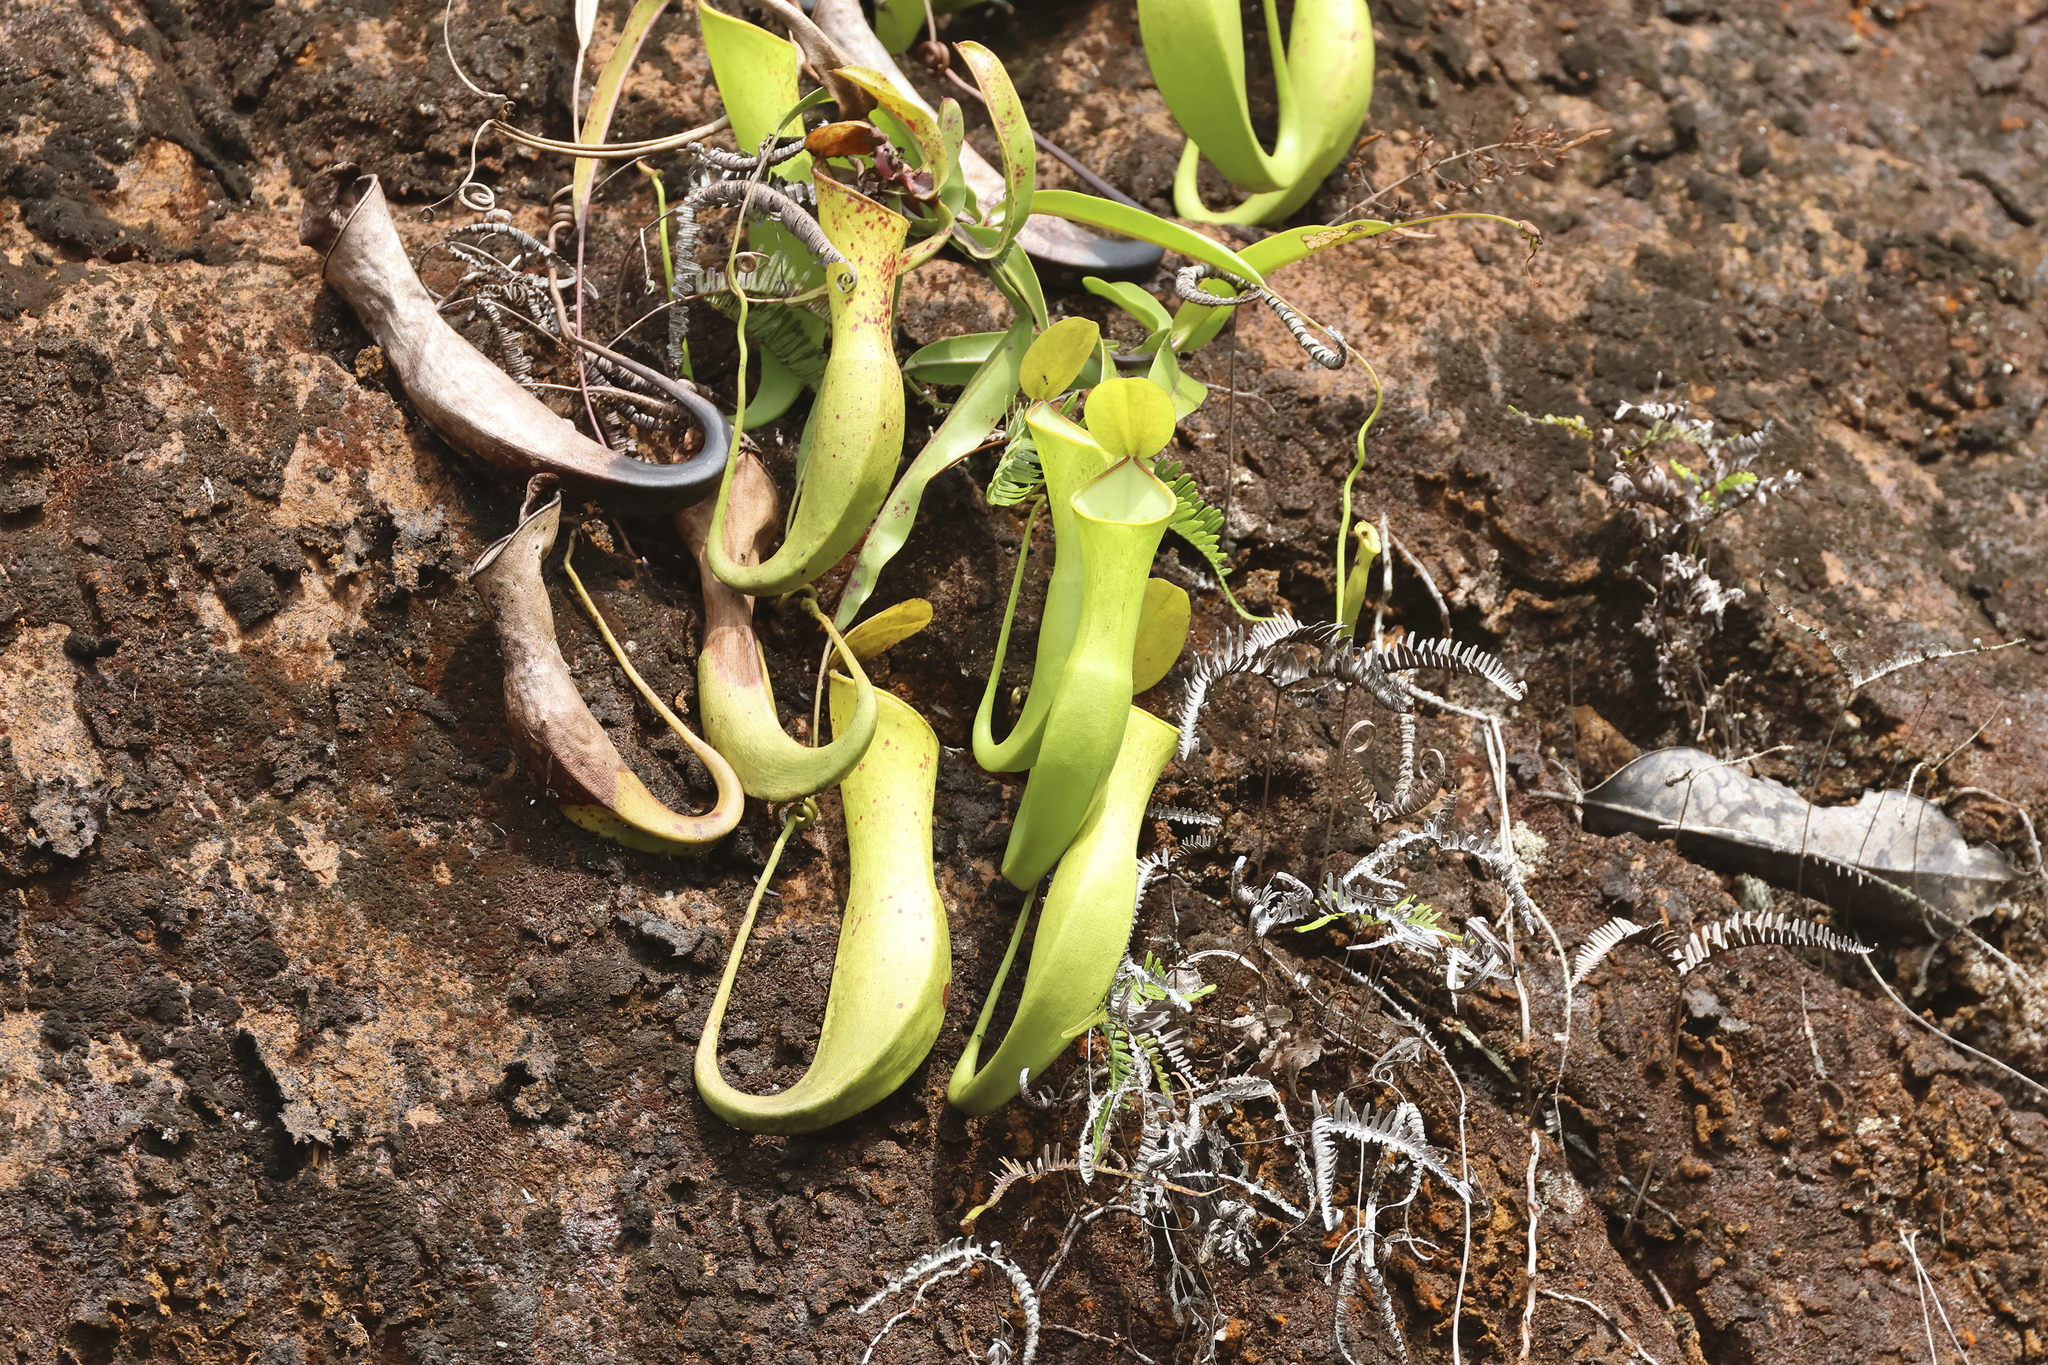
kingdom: Plantae
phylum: Tracheophyta
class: Magnoliopsida
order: Caryophyllales
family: Nepenthaceae
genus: Nepenthes
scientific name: Nepenthes reinwardtiana
